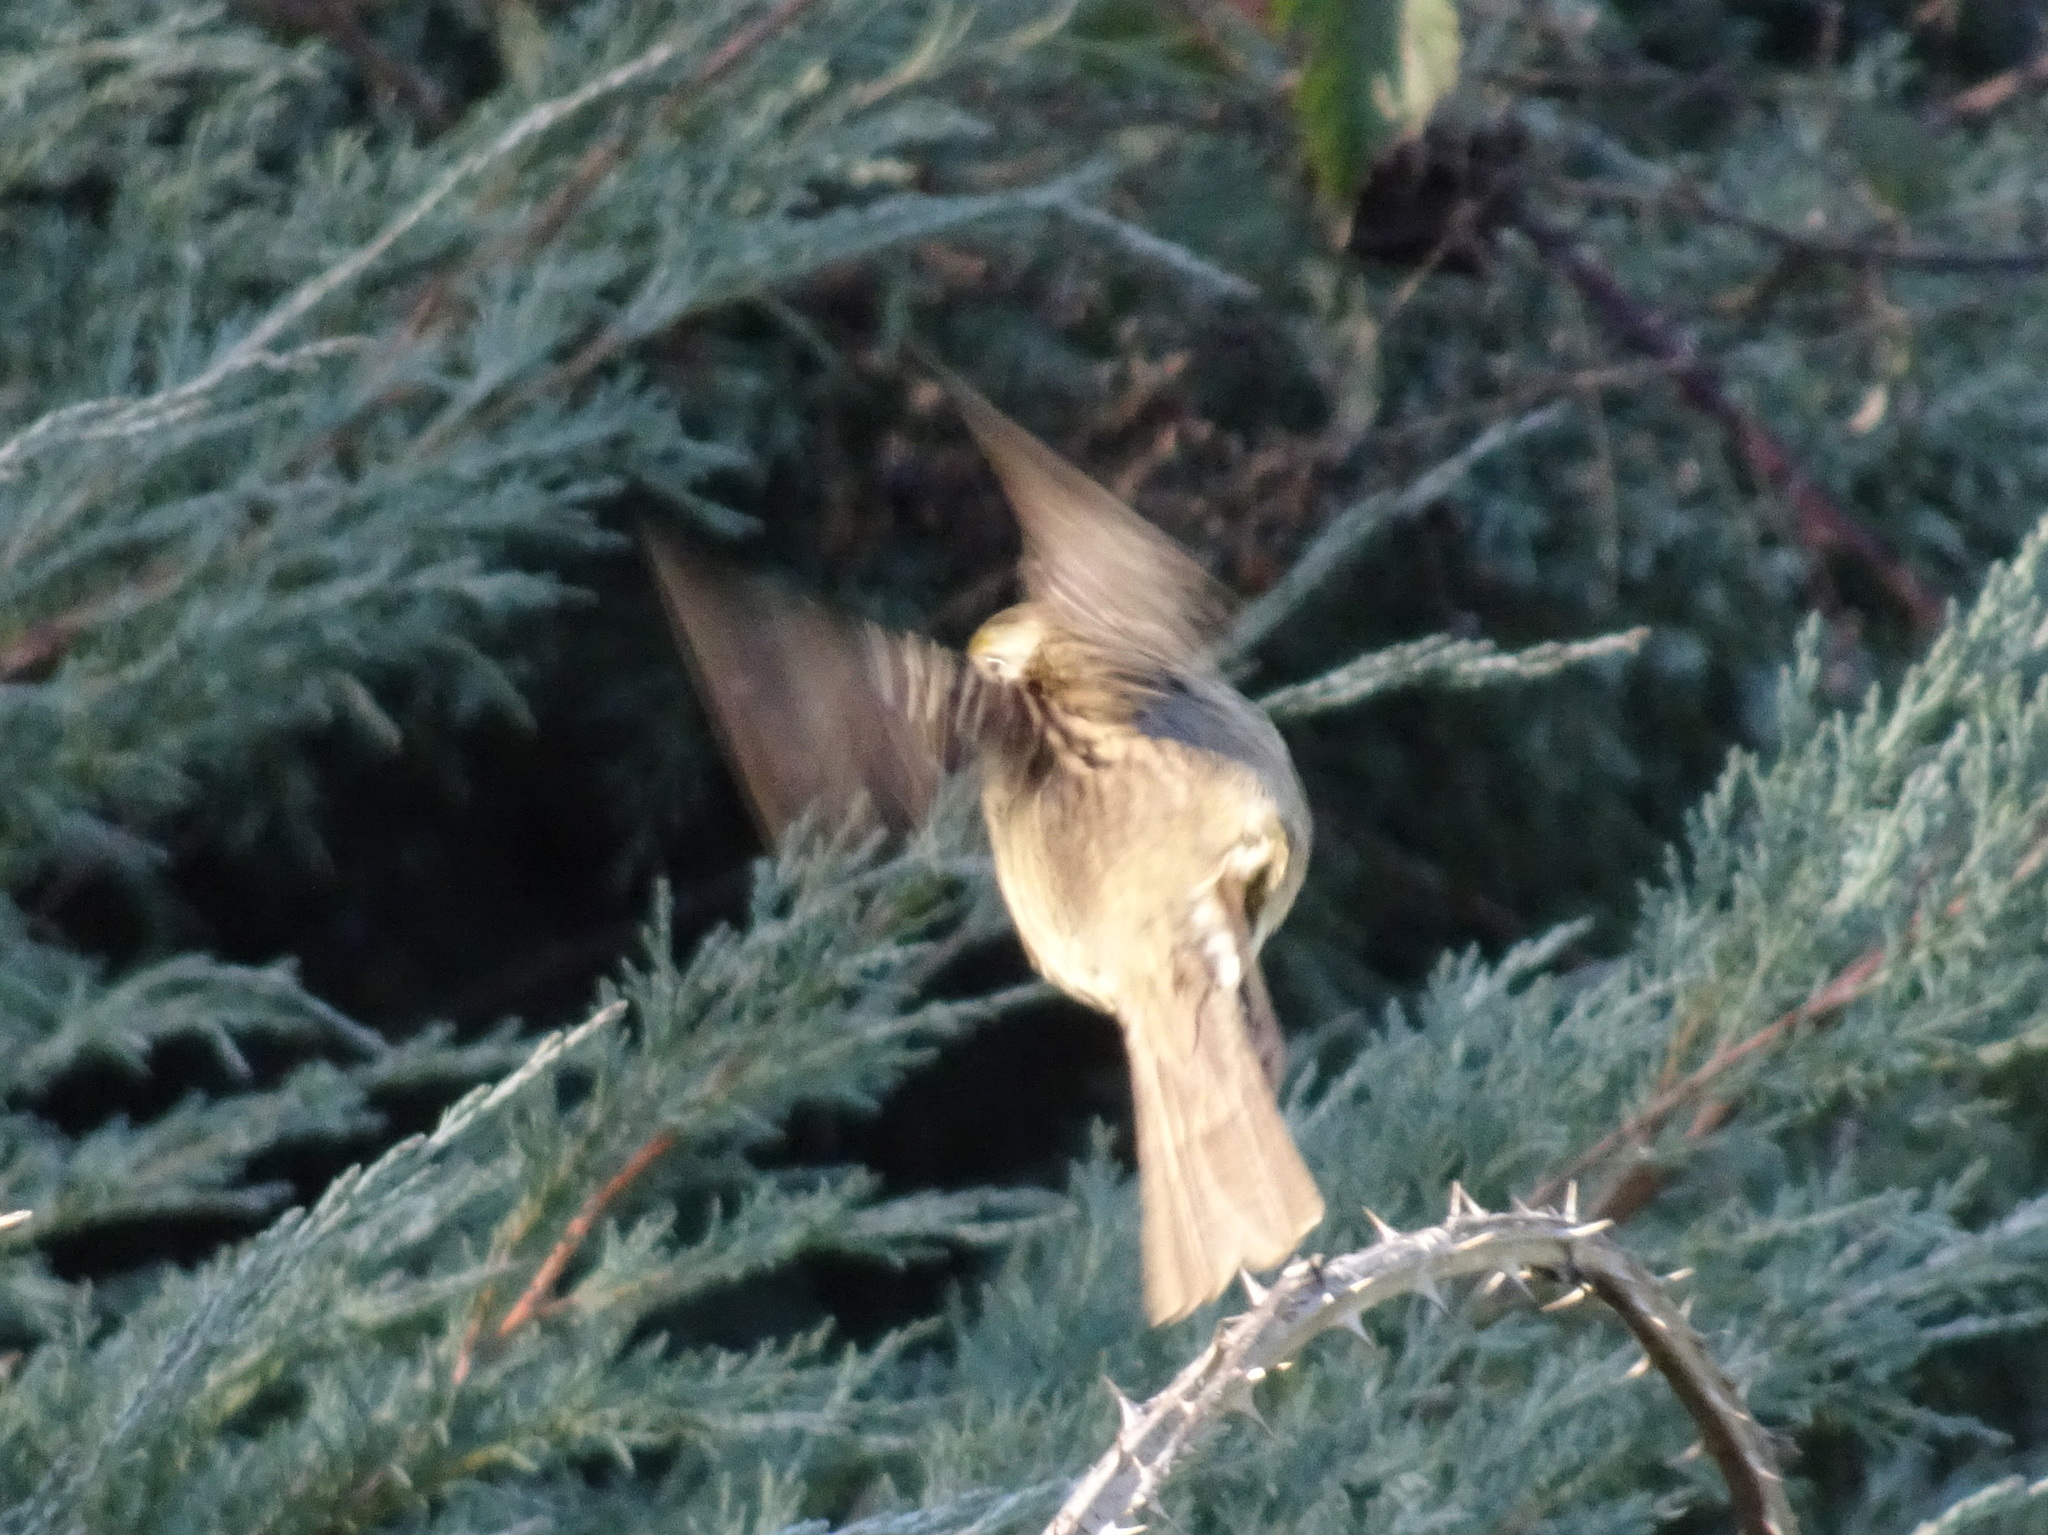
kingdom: Animalia
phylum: Chordata
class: Aves
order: Passeriformes
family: Passerellidae
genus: Zonotrichia
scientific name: Zonotrichia atricapilla
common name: Golden-crowned sparrow
